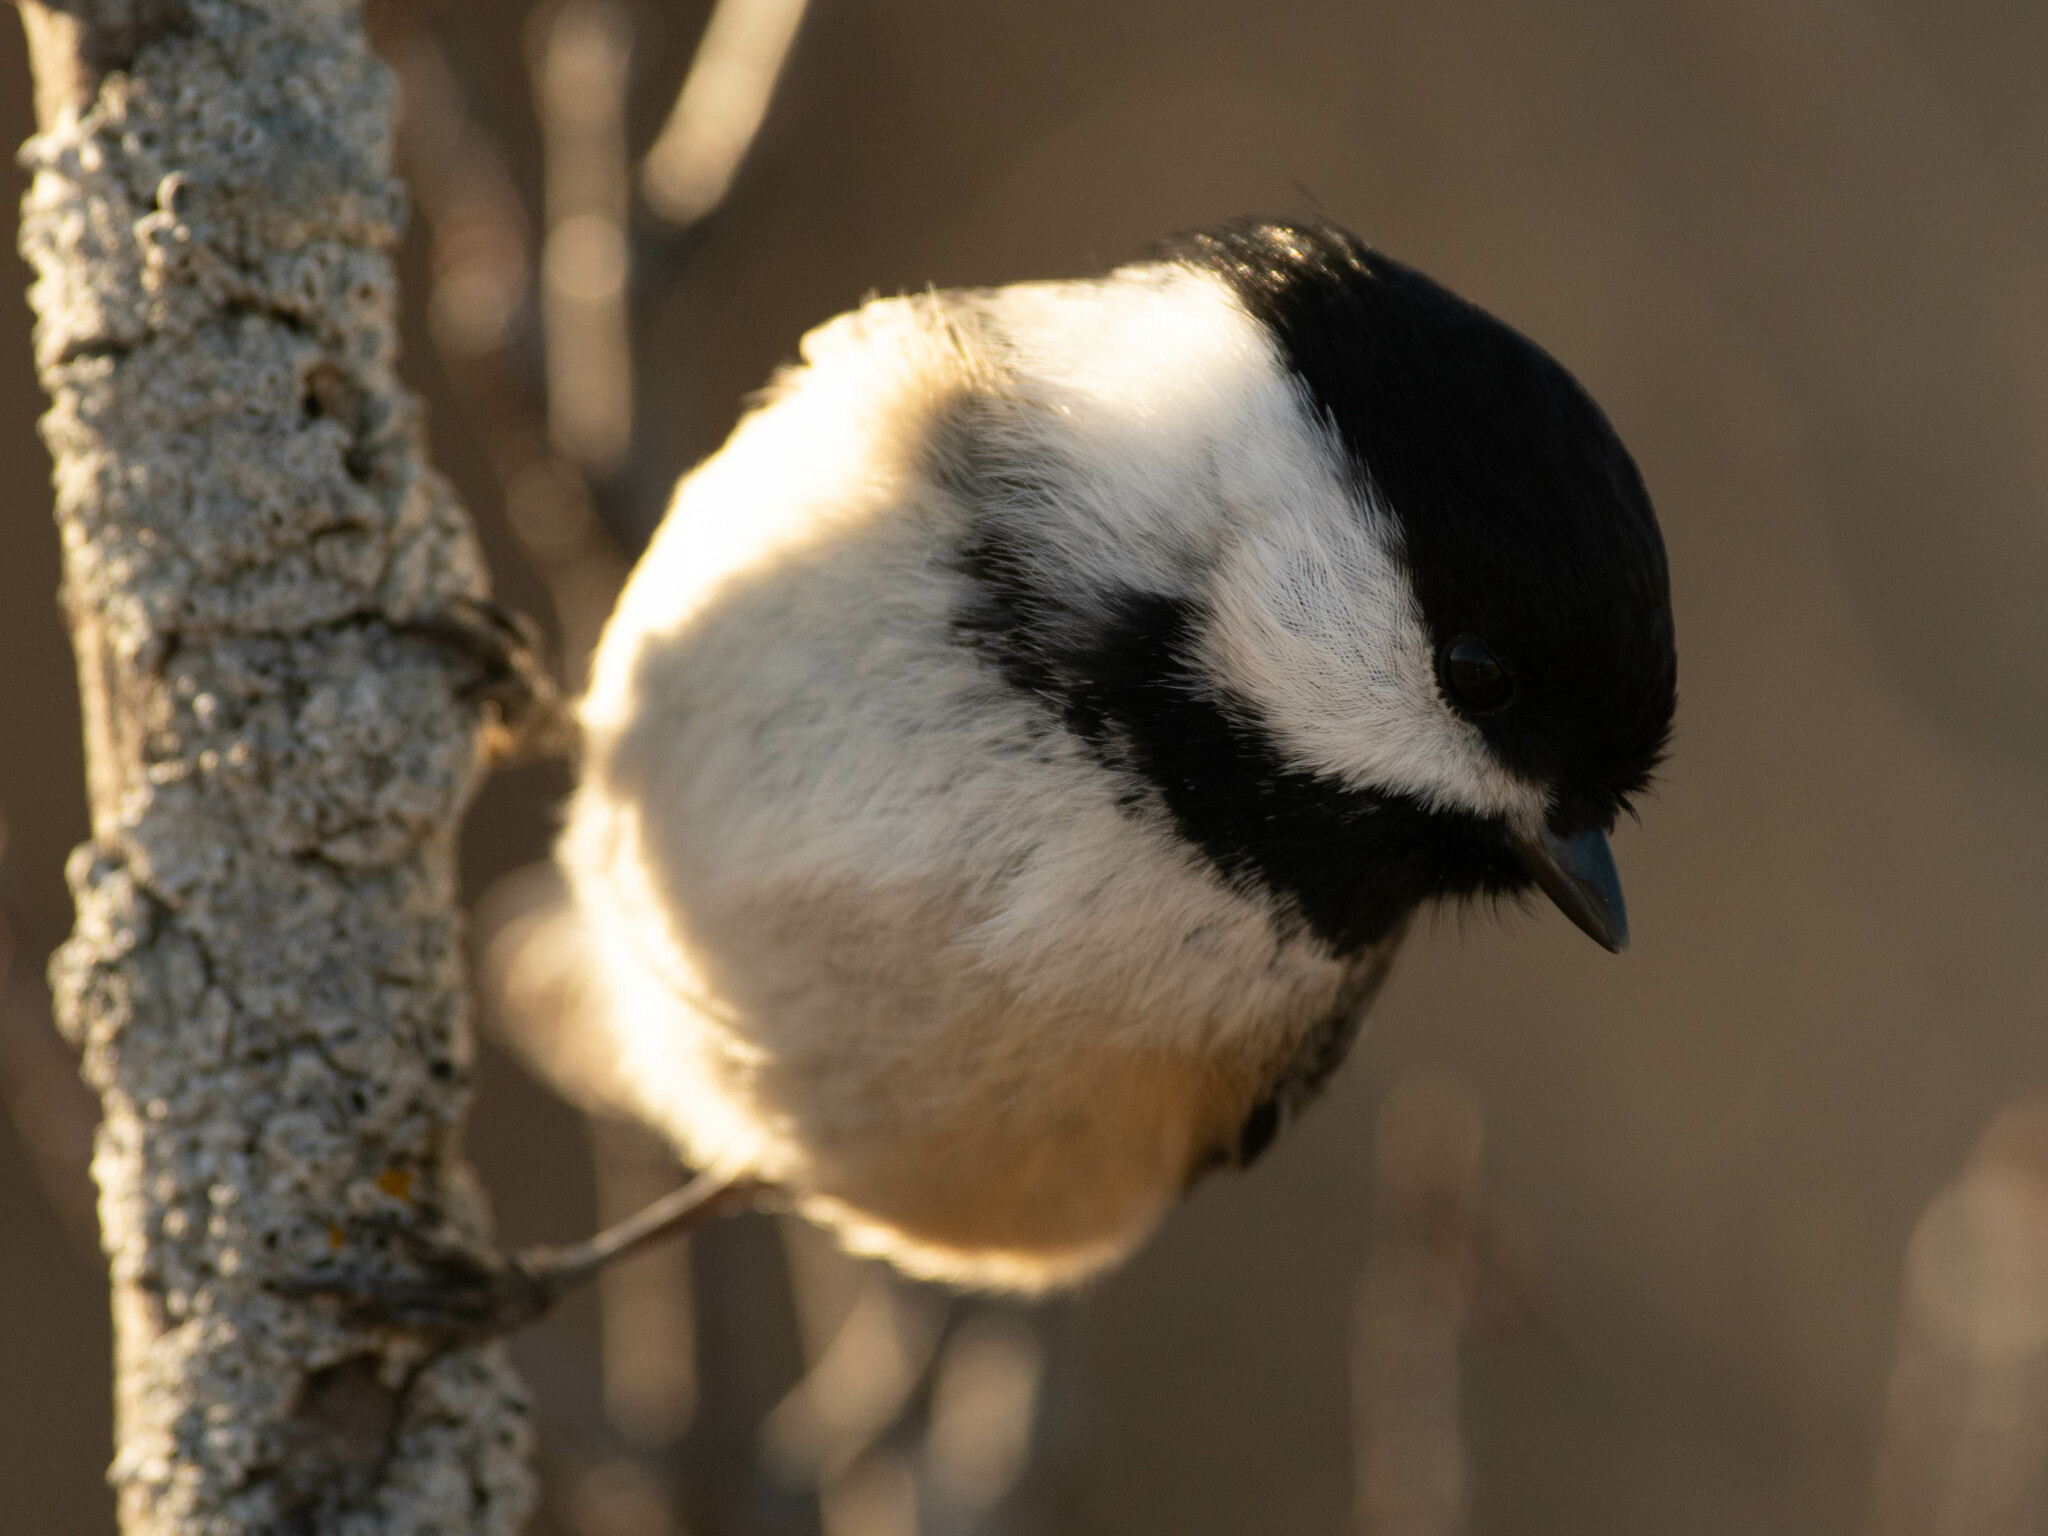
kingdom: Animalia
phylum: Chordata
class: Aves
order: Passeriformes
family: Paridae
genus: Poecile
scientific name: Poecile atricapillus
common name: Black-capped chickadee
